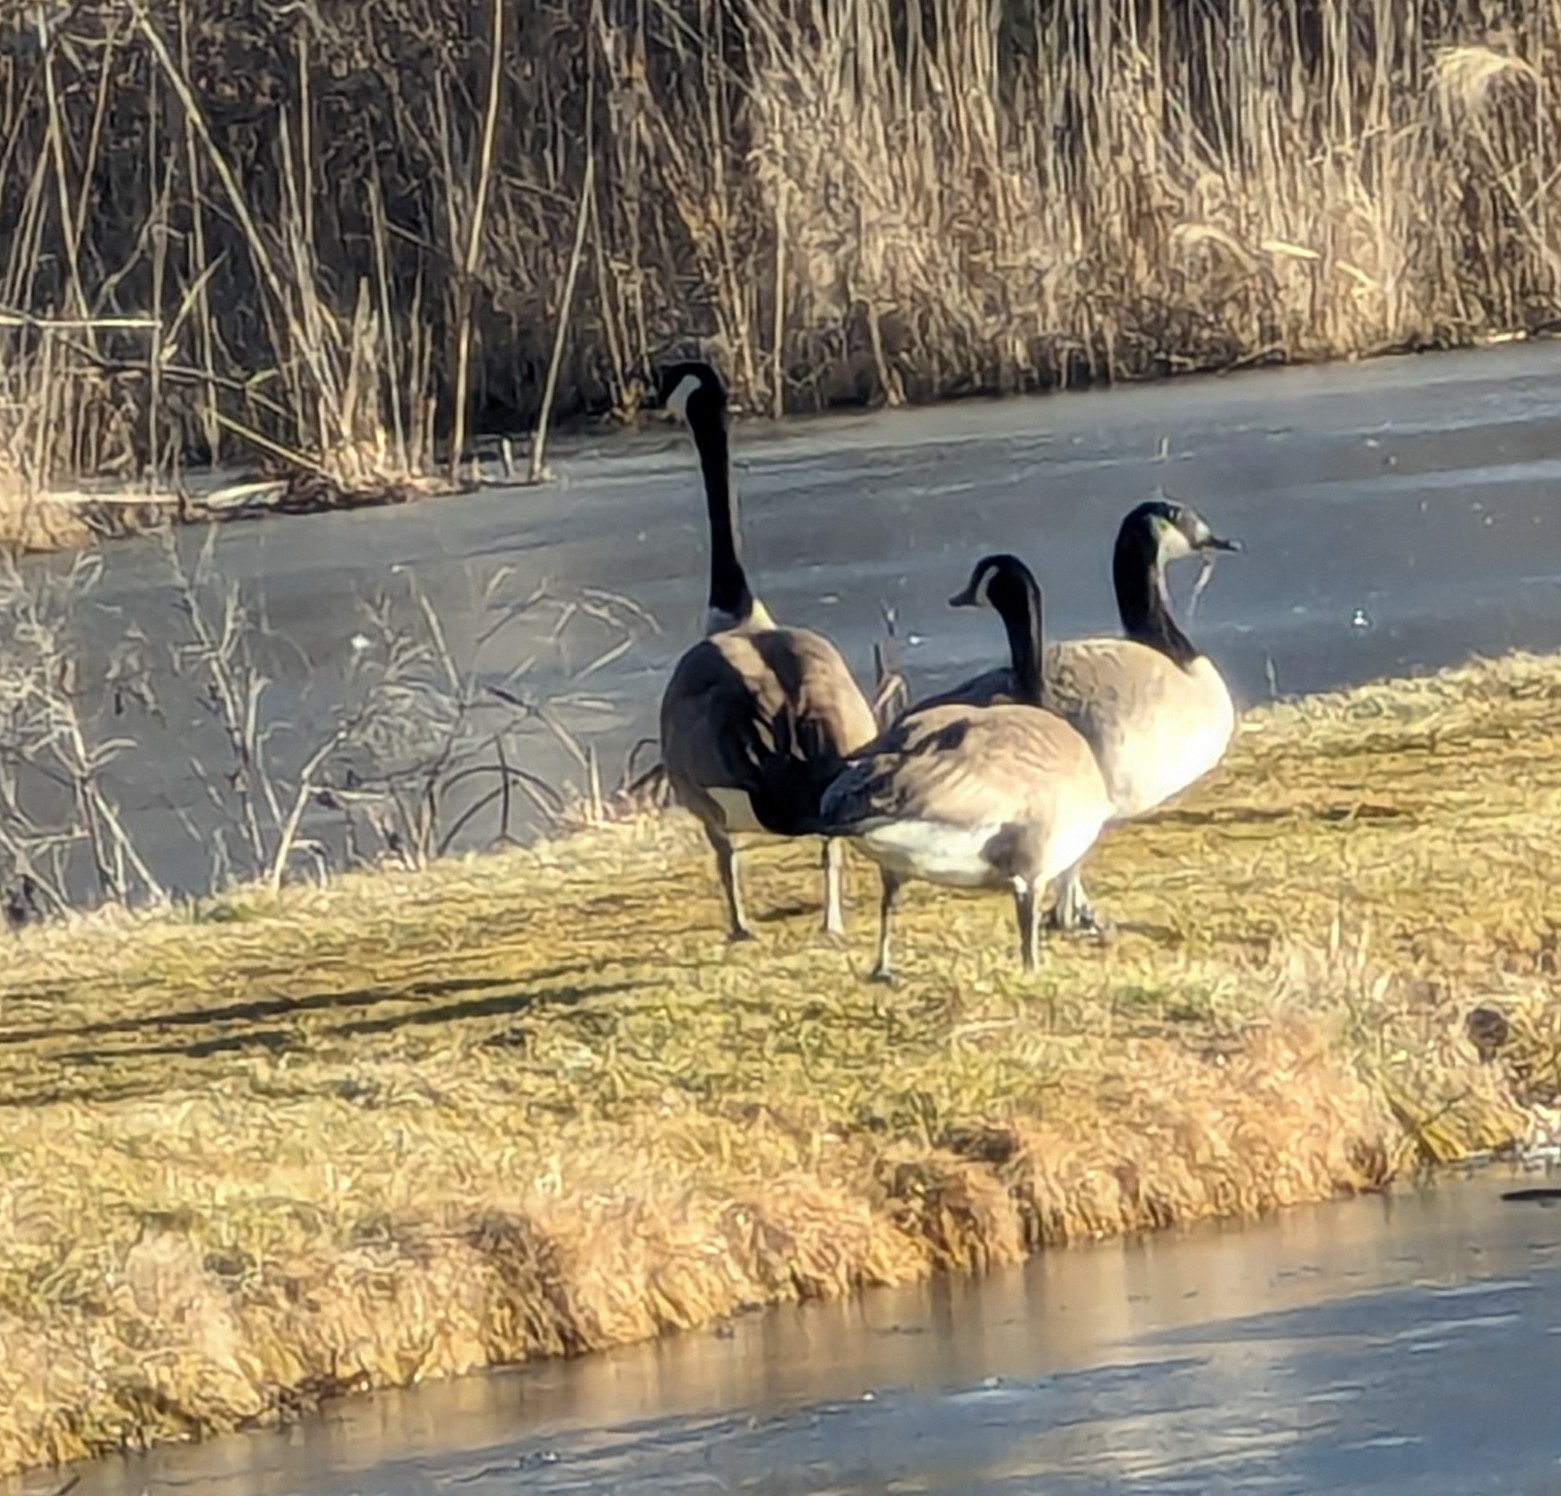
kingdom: Animalia
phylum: Chordata
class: Aves
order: Anseriformes
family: Anatidae
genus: Branta
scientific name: Branta canadensis
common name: Canada goose
